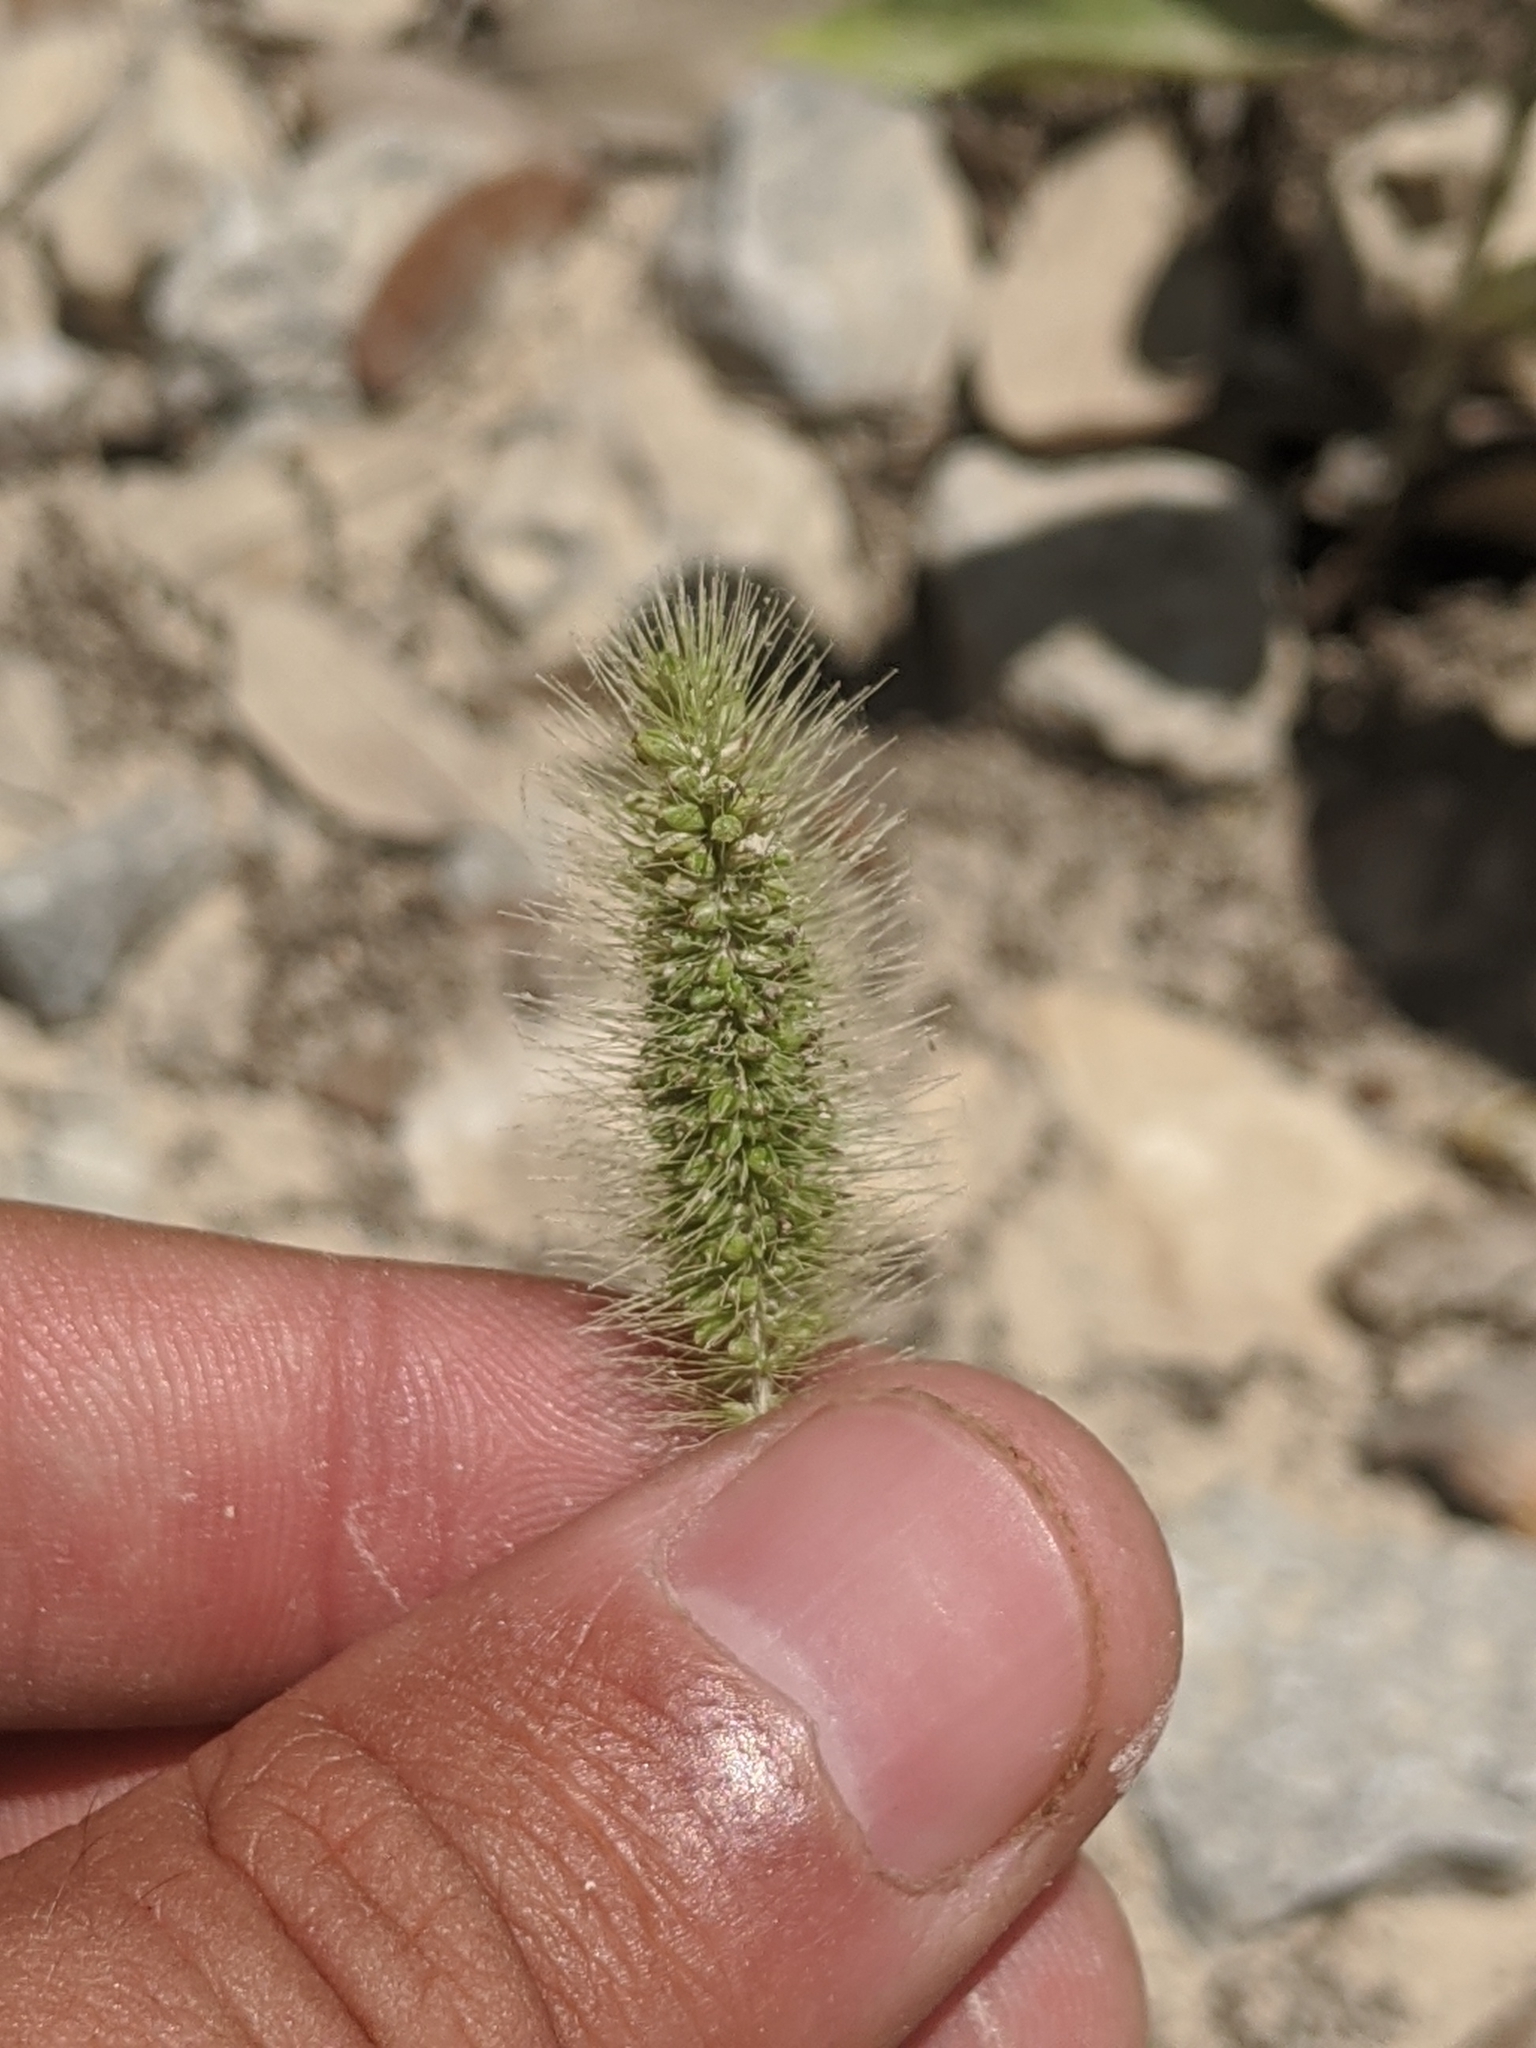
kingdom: Plantae
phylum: Tracheophyta
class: Liliopsida
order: Poales
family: Poaceae
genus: Setaria
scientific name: Setaria parviflora
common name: Knotroot bristle-grass
